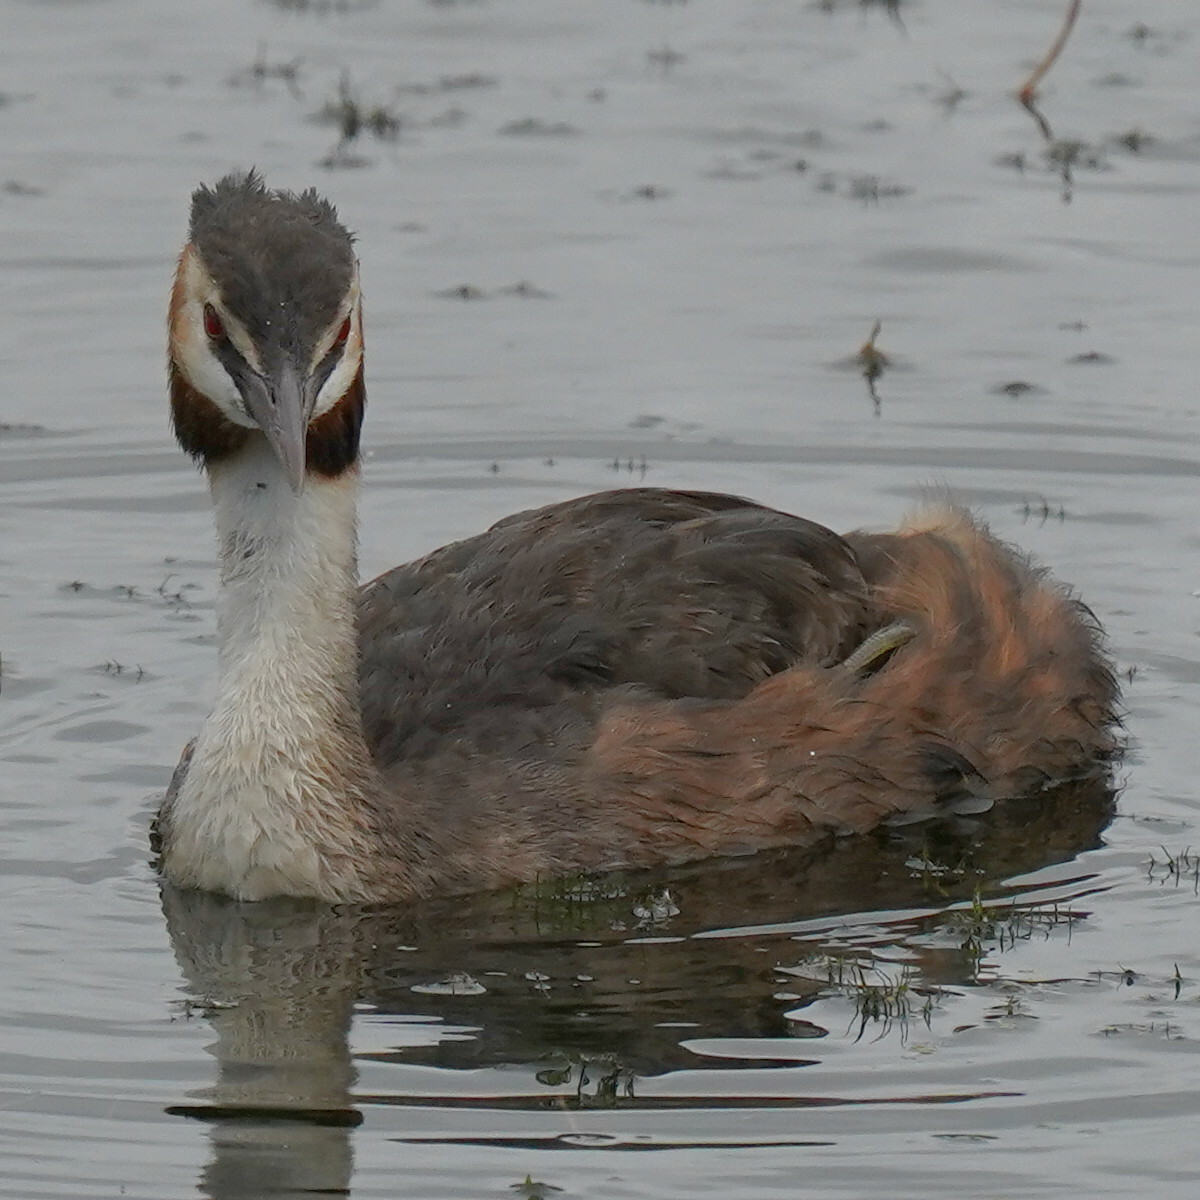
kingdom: Animalia
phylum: Chordata
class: Aves
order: Podicipediformes
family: Podicipedidae
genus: Podiceps
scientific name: Podiceps cristatus
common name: Great crested grebe
